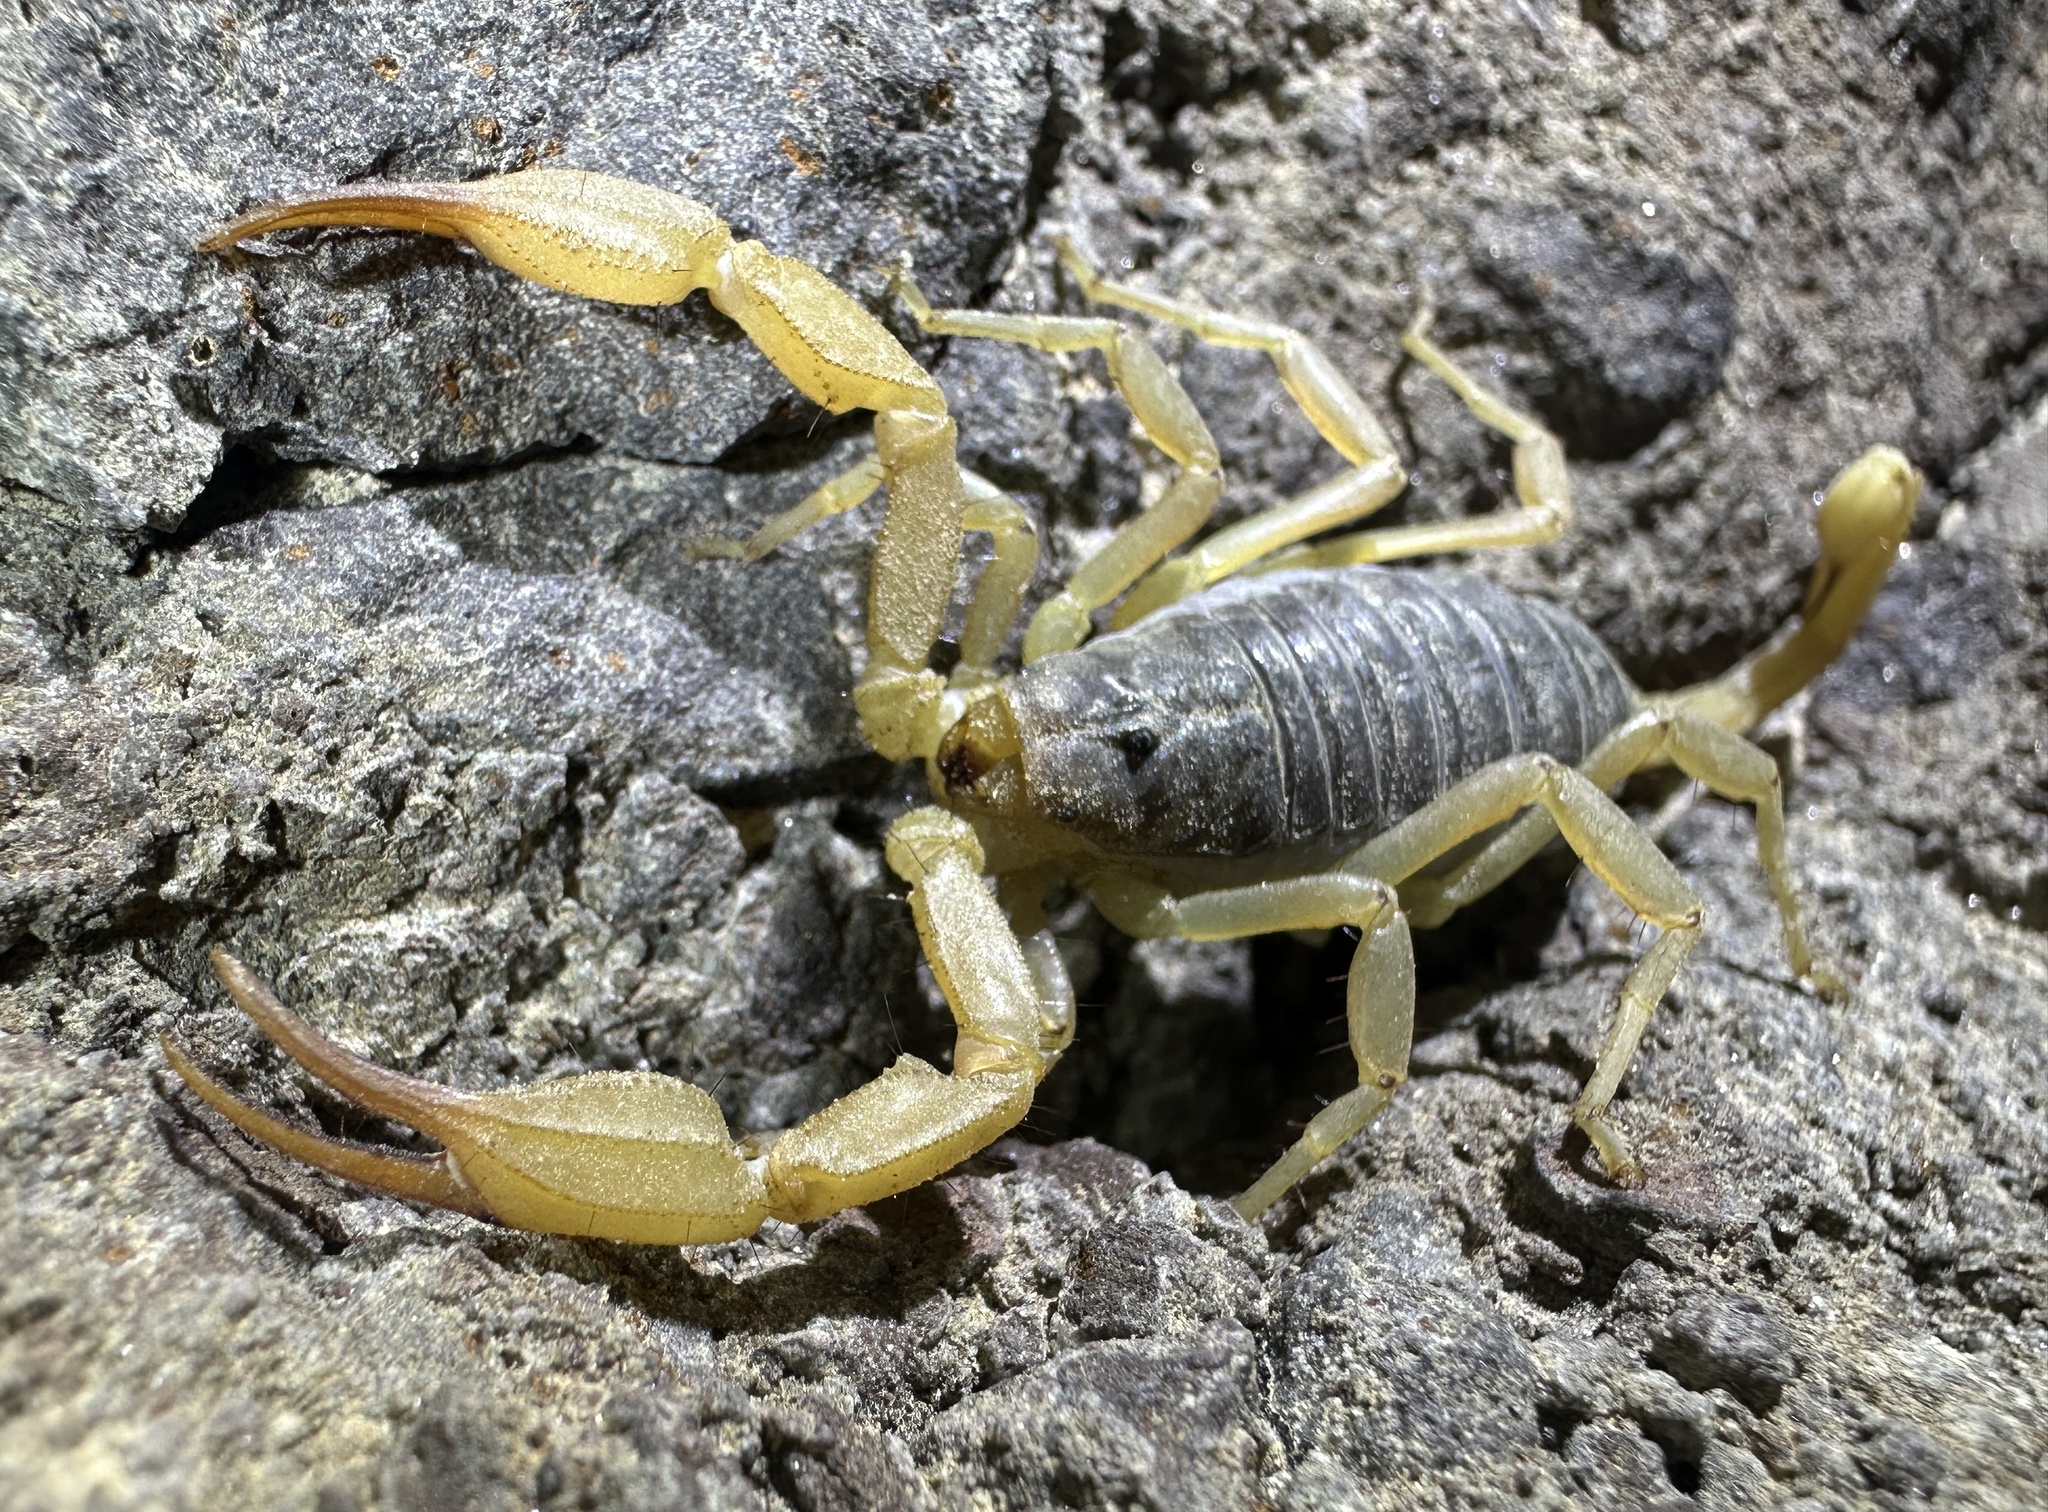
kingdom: Animalia
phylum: Arthropoda
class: Arachnida
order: Scorpiones
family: Vaejovidae
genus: Smeringurus
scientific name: Smeringurus vachoni
